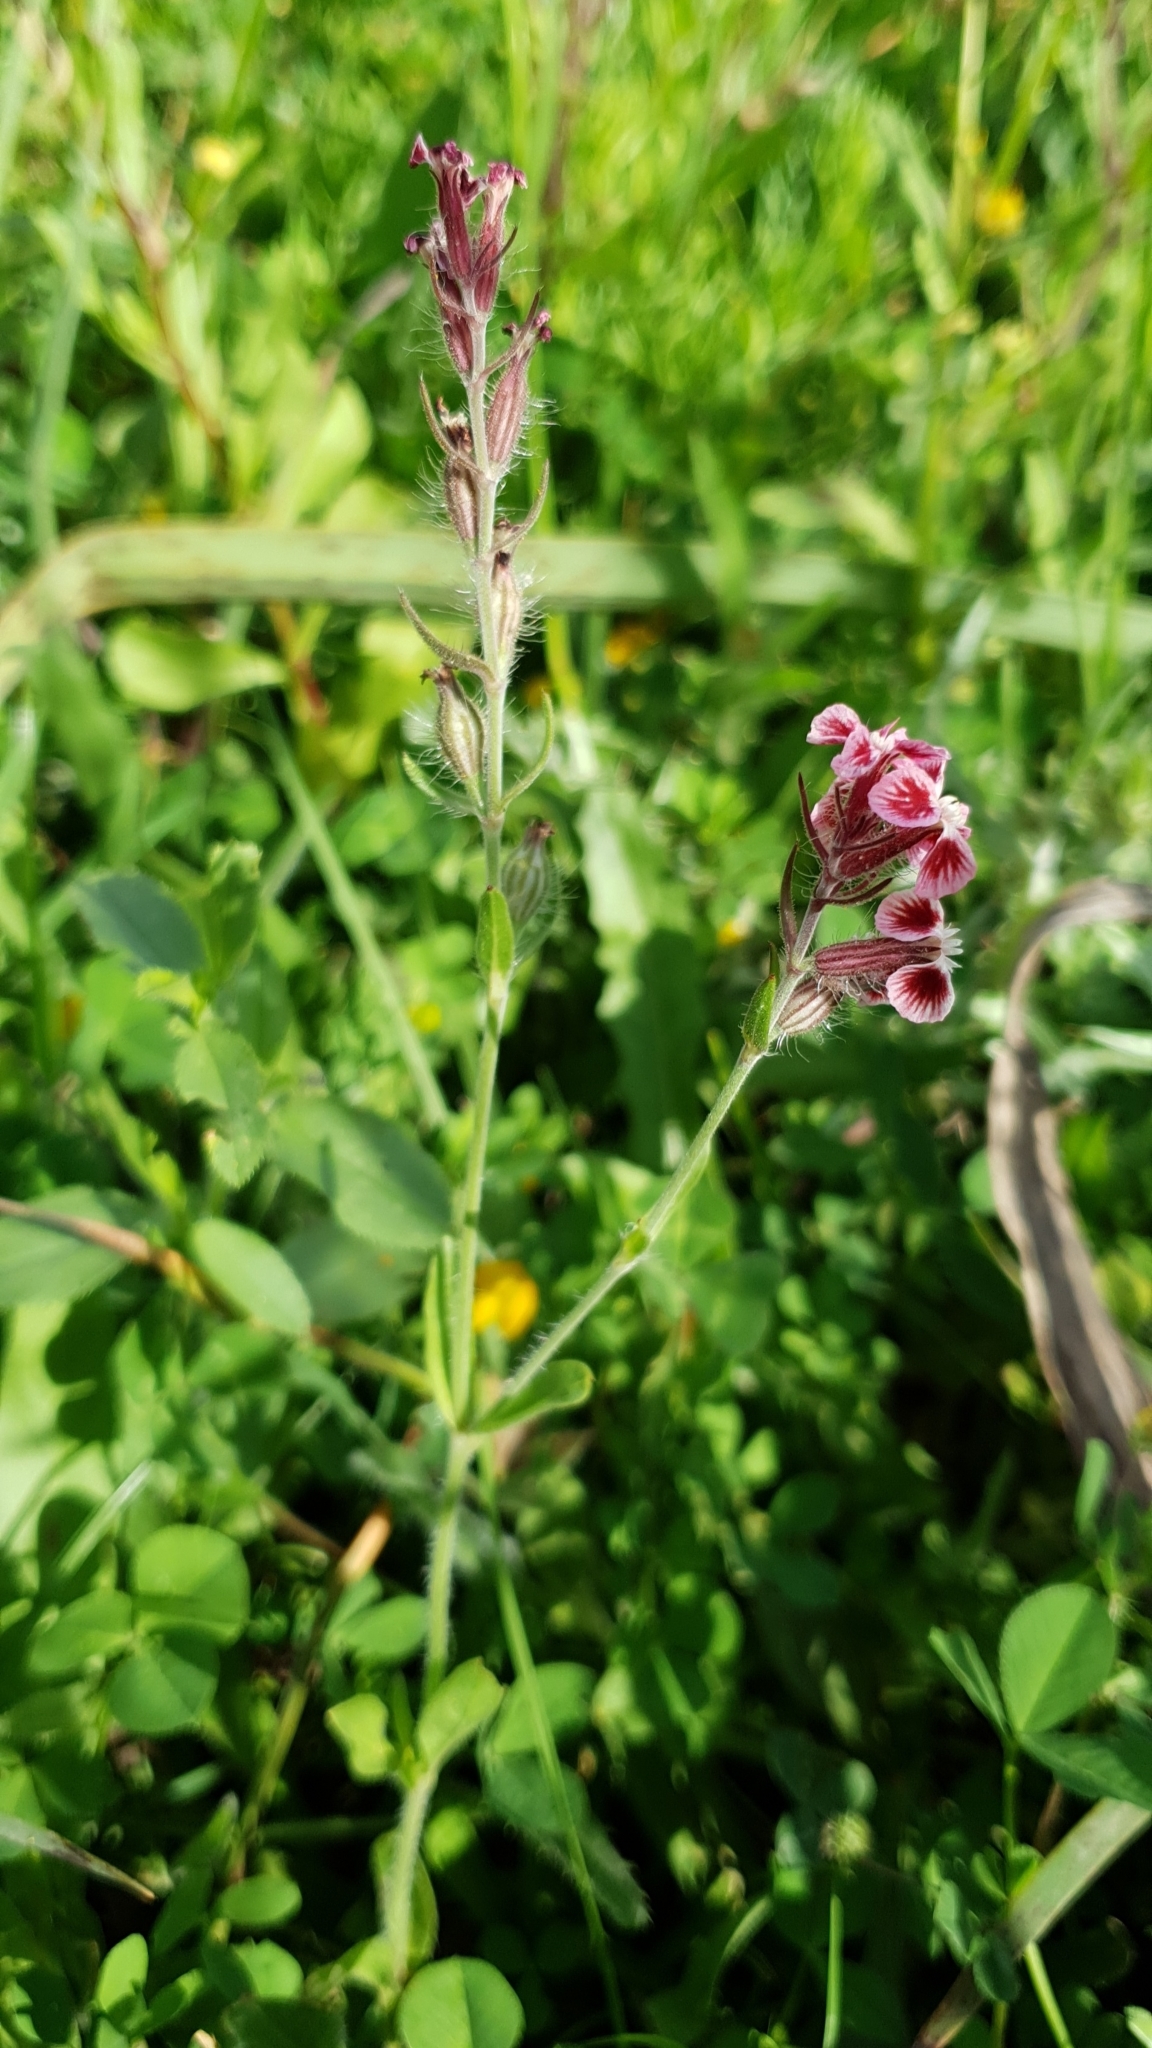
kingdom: Plantae
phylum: Tracheophyta
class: Magnoliopsida
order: Caryophyllales
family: Caryophyllaceae
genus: Silene
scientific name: Silene gallica
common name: Small-flowered catchfly
